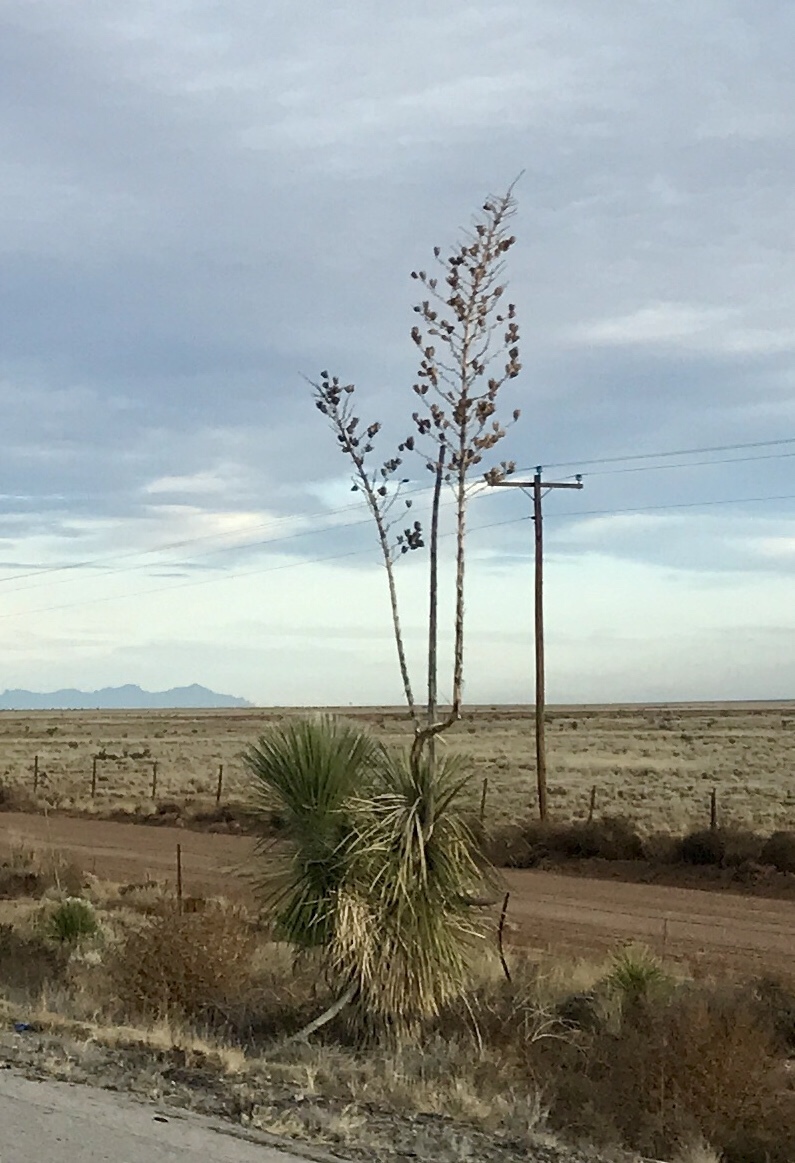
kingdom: Plantae
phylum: Tracheophyta
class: Liliopsida
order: Asparagales
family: Asparagaceae
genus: Yucca
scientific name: Yucca elata
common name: Palmella
